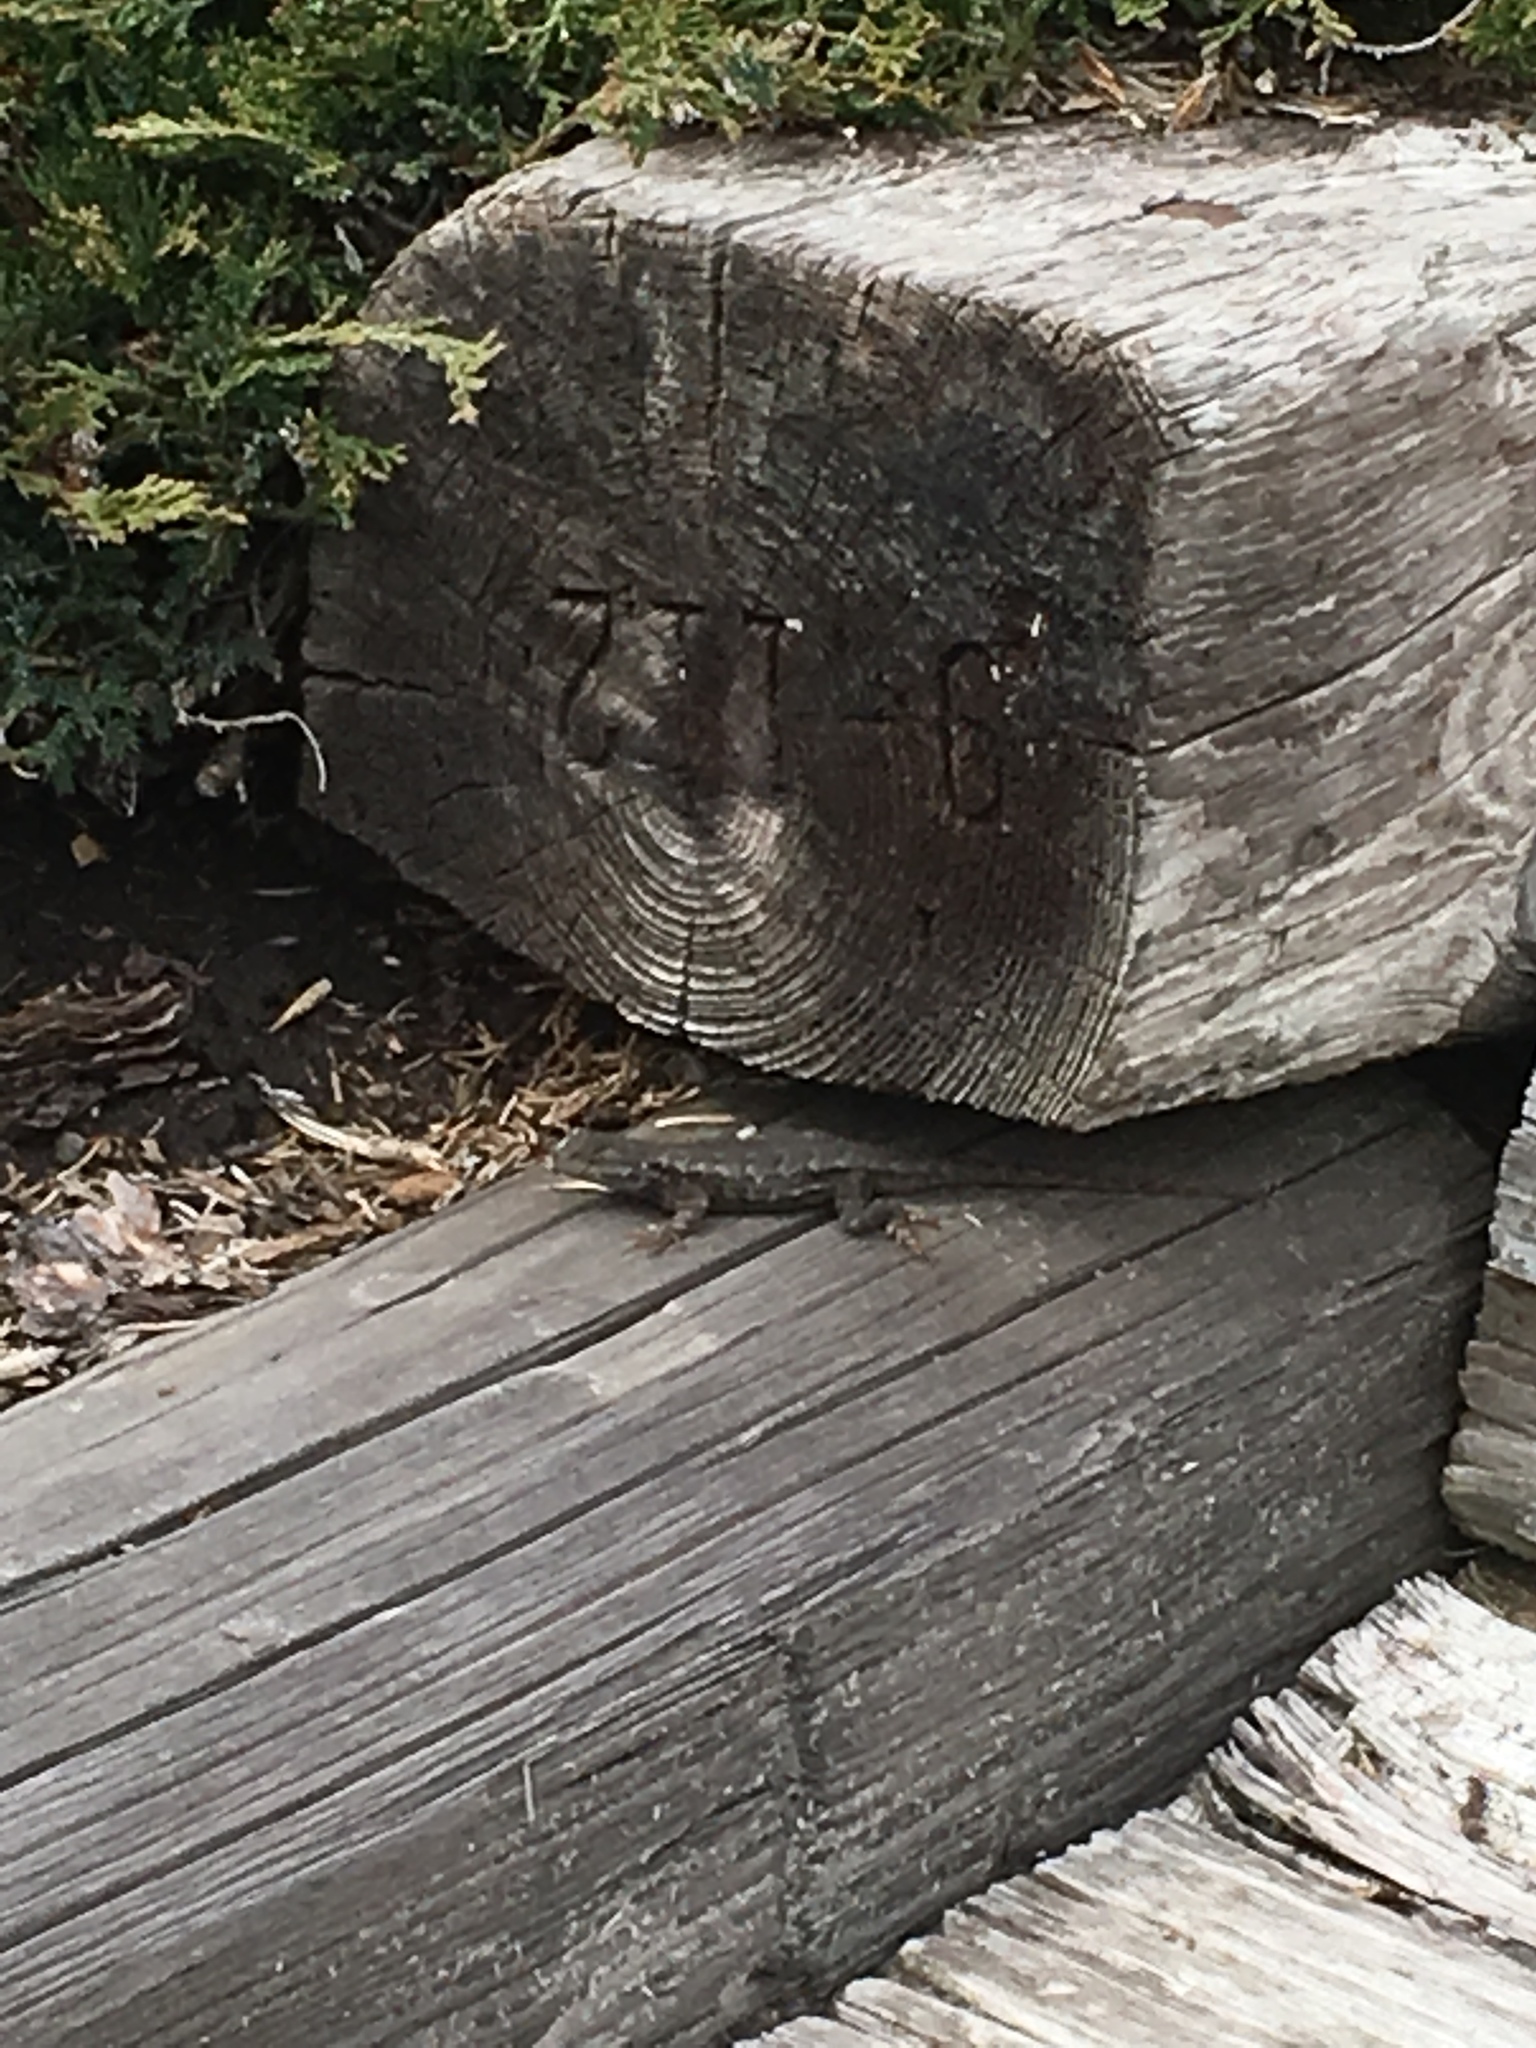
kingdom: Animalia
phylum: Chordata
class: Squamata
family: Phrynosomatidae
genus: Sceloporus
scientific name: Sceloporus occidentalis
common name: Western fence lizard
